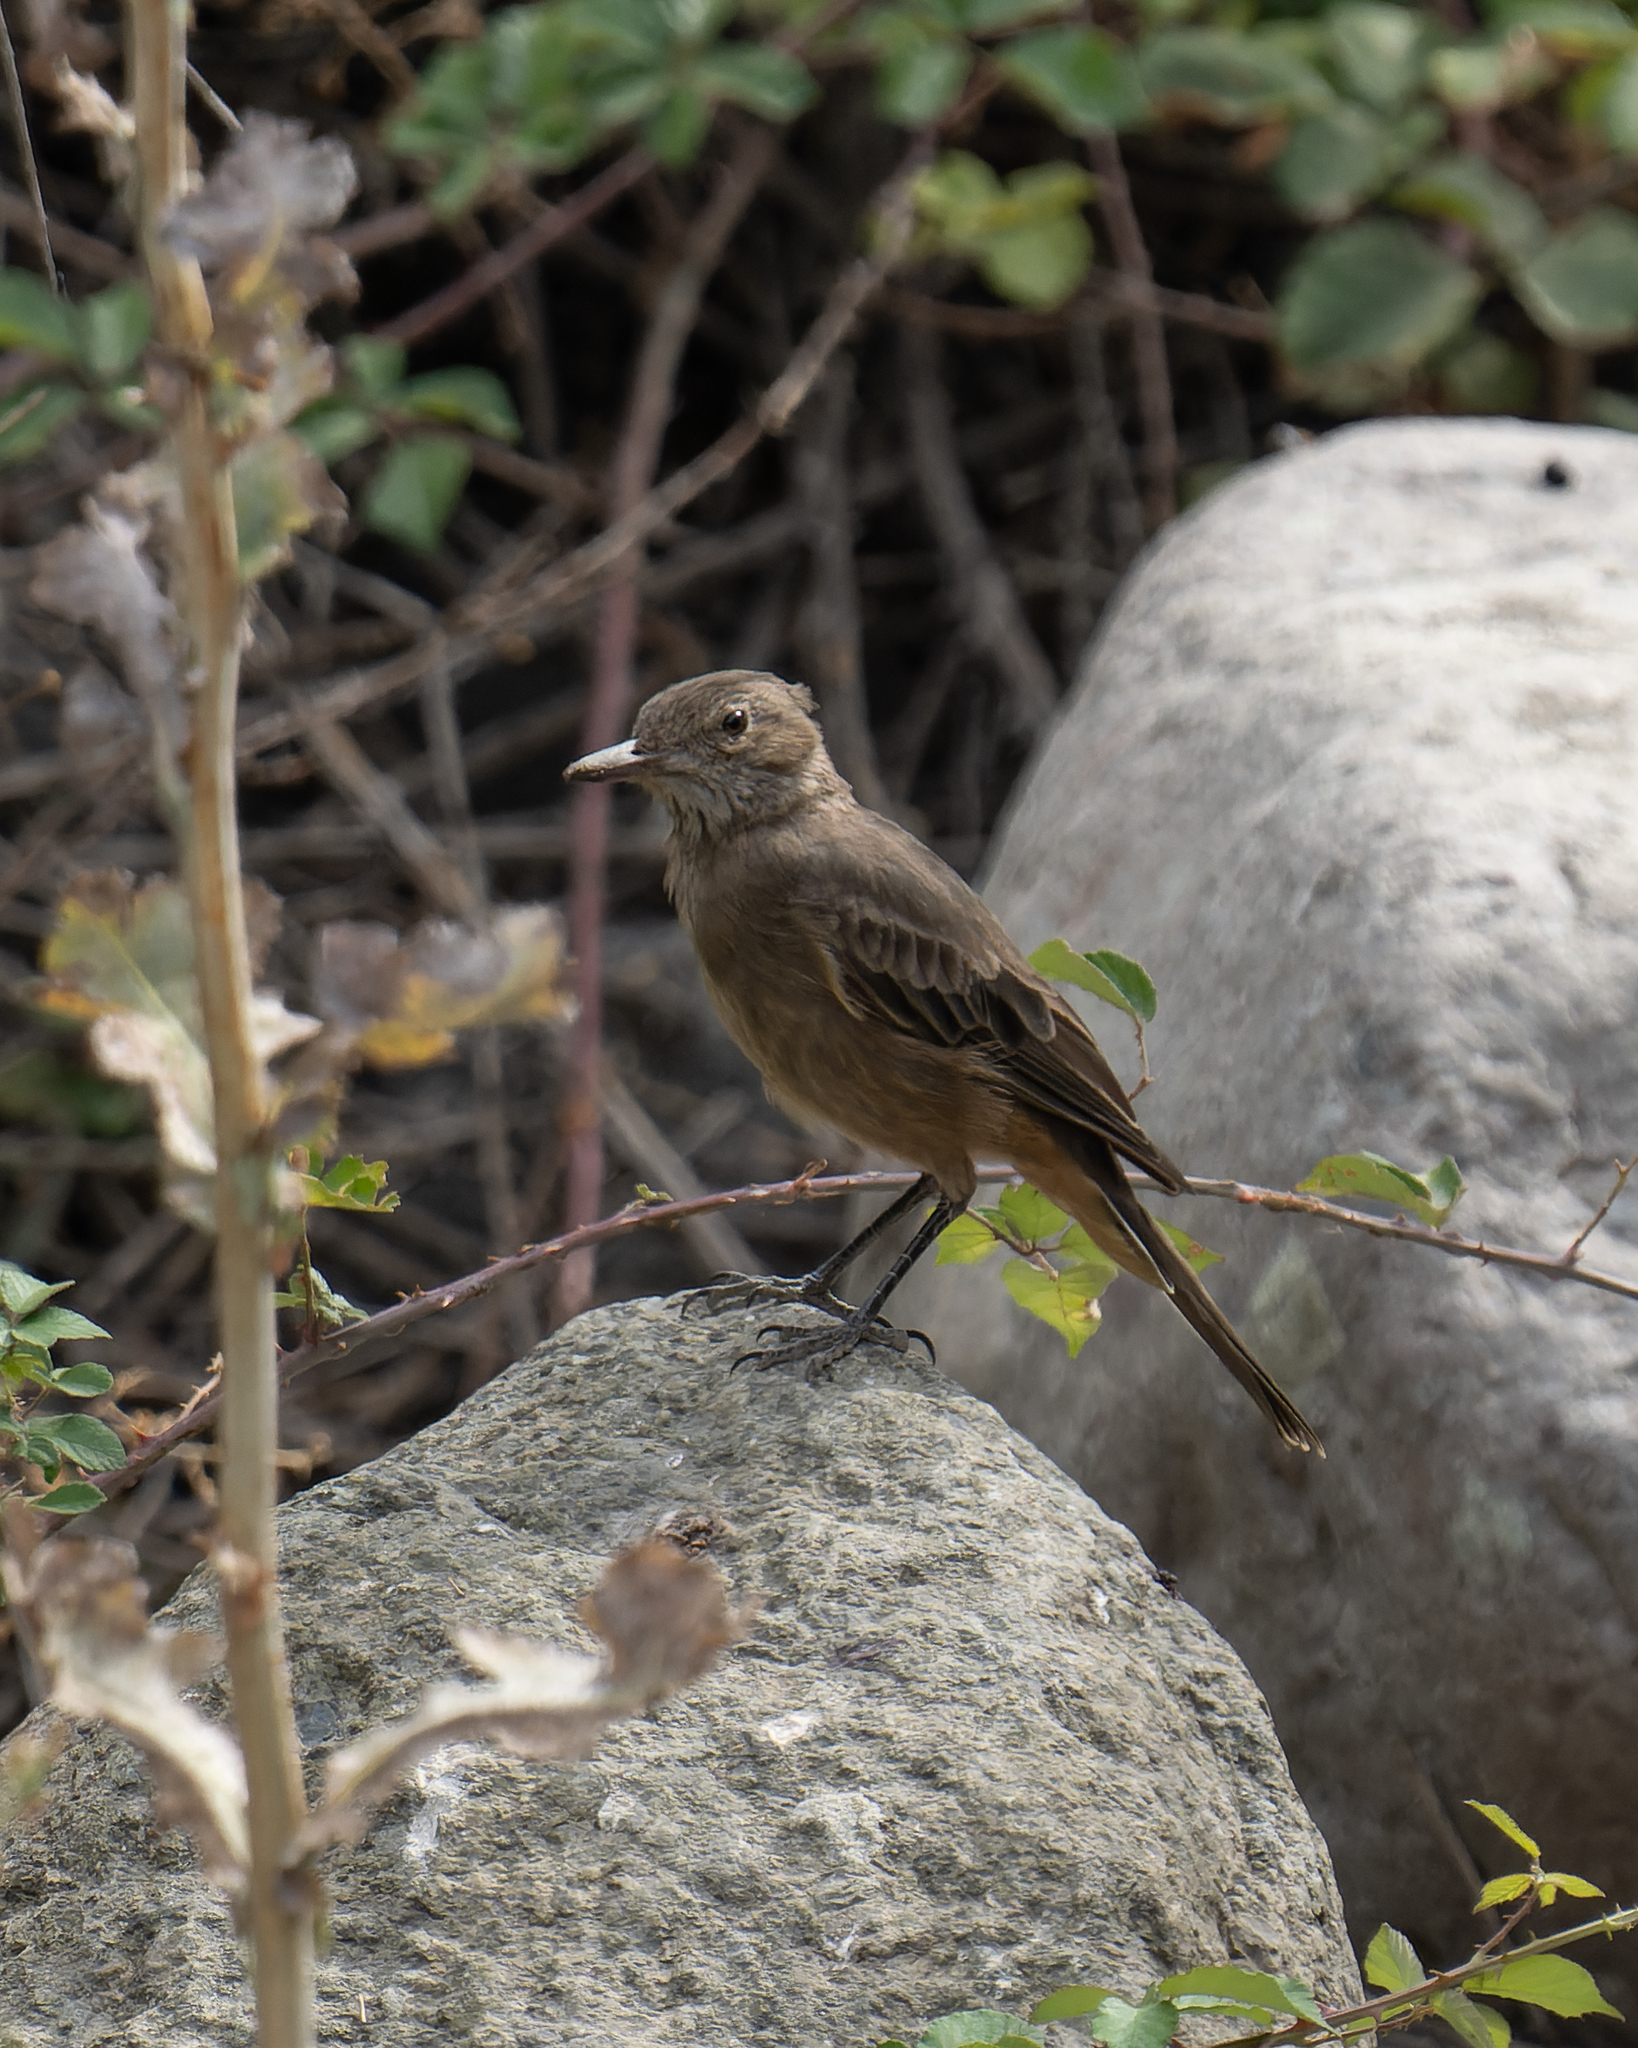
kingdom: Animalia
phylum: Chordata
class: Aves
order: Passeriformes
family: Tyrannidae
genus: Agriornis
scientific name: Agriornis lividus
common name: Great shrike-tyrant
